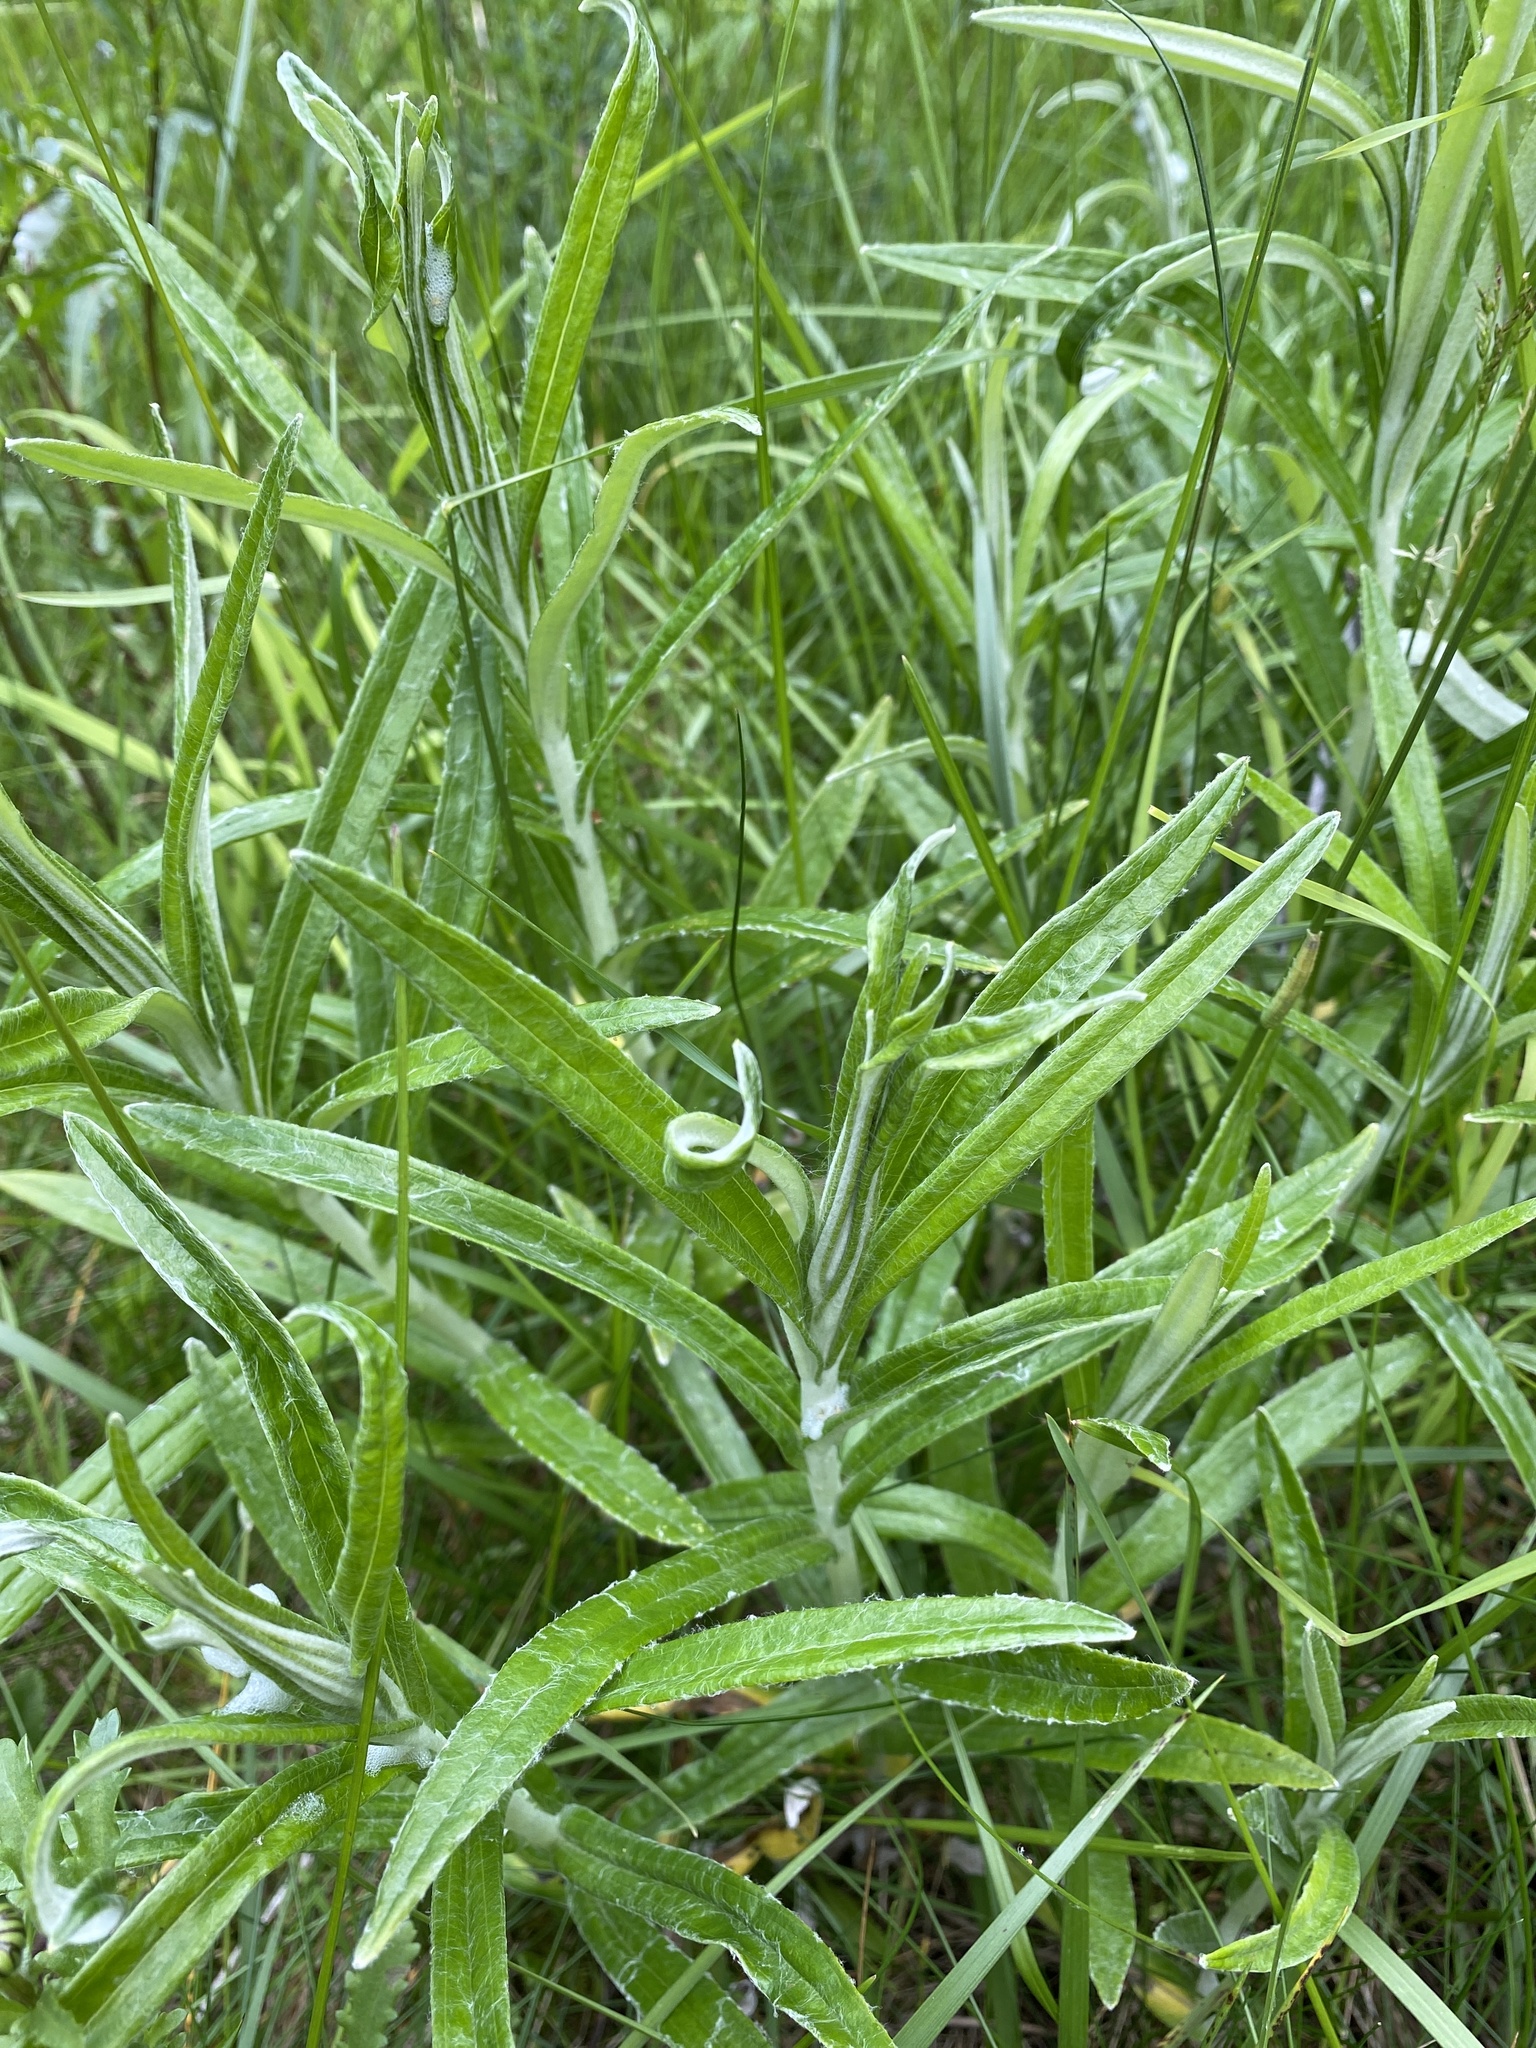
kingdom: Plantae
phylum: Tracheophyta
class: Magnoliopsida
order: Asterales
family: Asteraceae
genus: Anaphalis
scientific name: Anaphalis margaritacea
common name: Pearly everlasting
